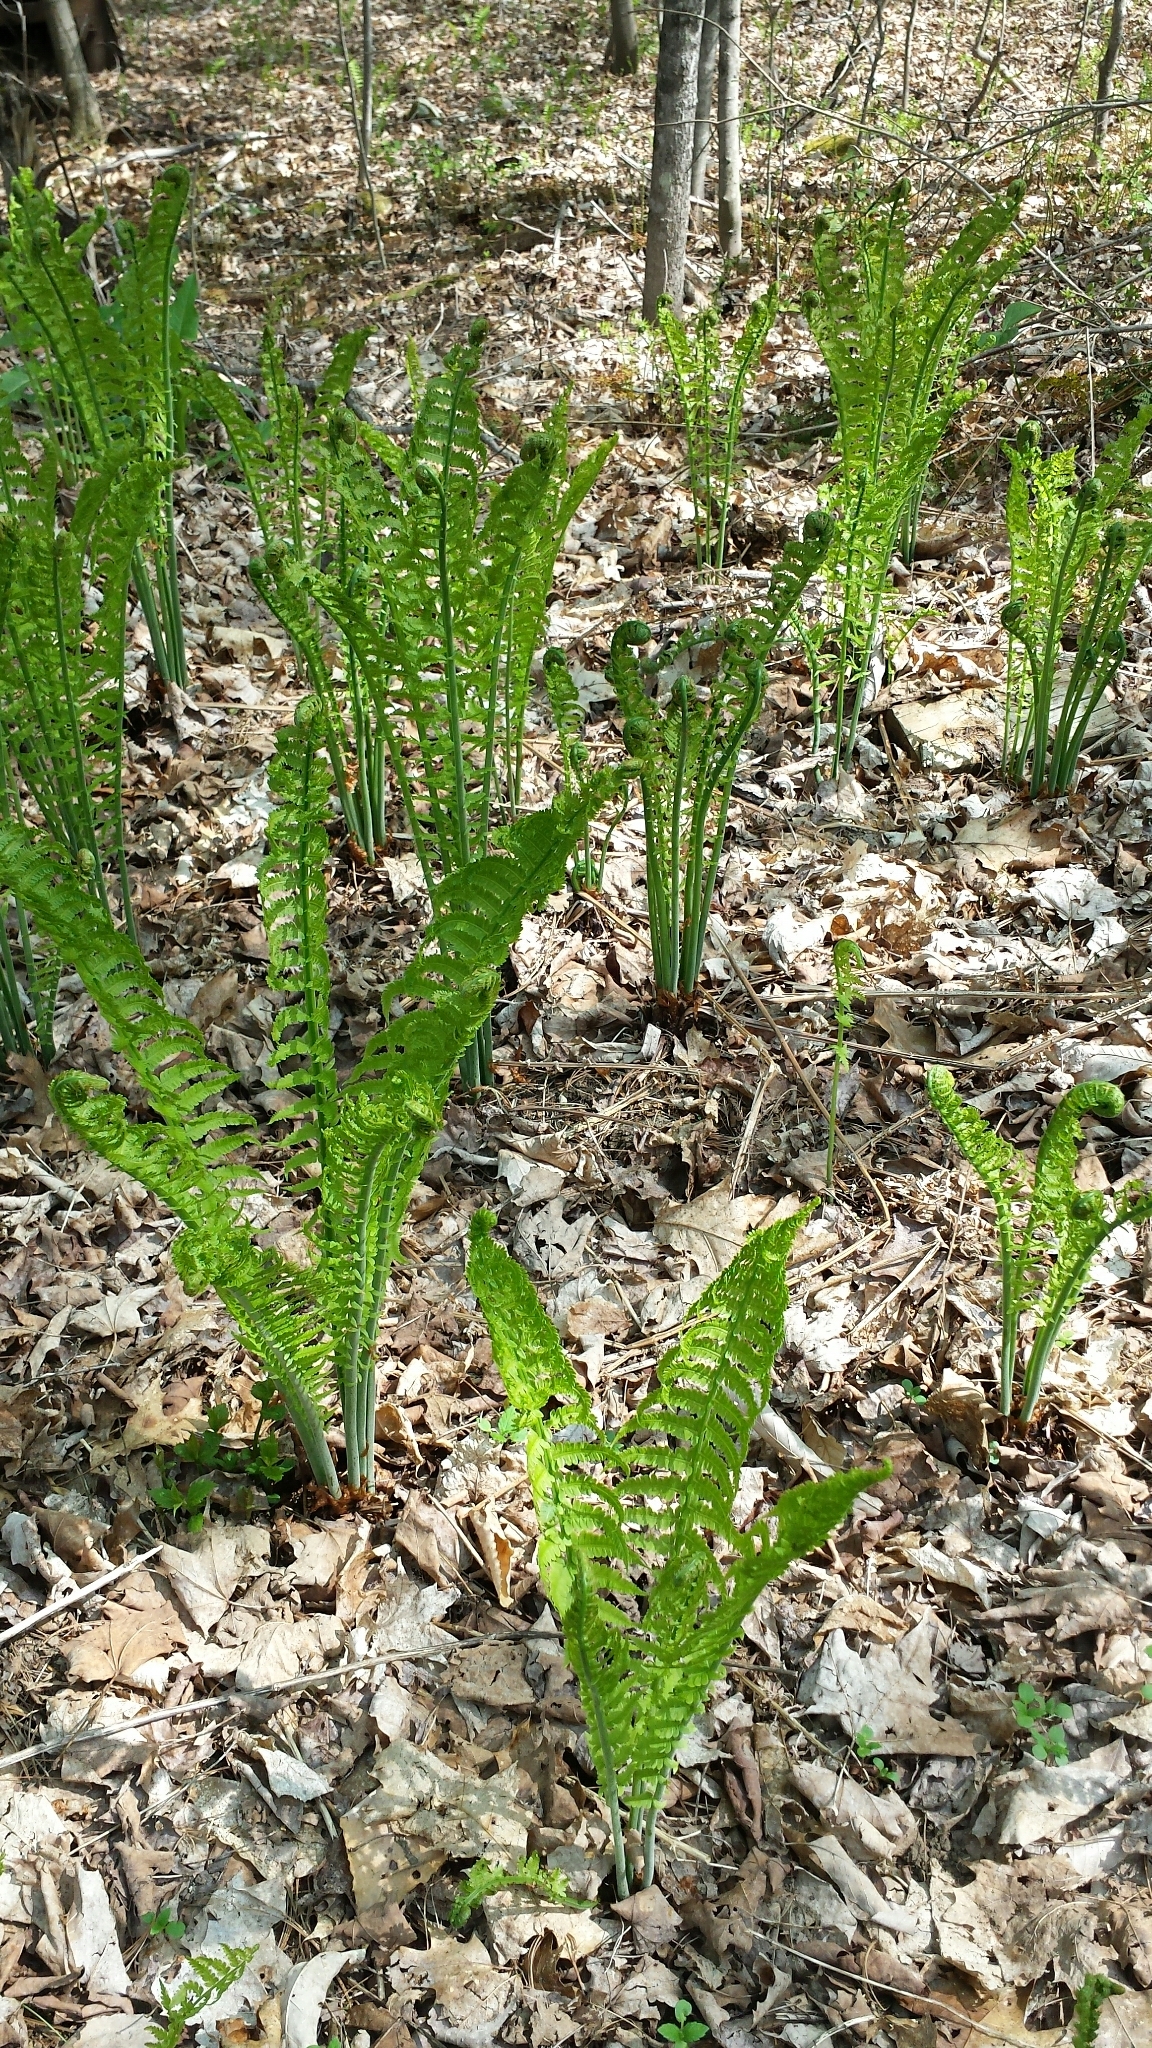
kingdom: Plantae
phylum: Tracheophyta
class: Polypodiopsida
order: Polypodiales
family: Onocleaceae
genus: Matteuccia
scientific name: Matteuccia struthiopteris
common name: Ostrich fern
